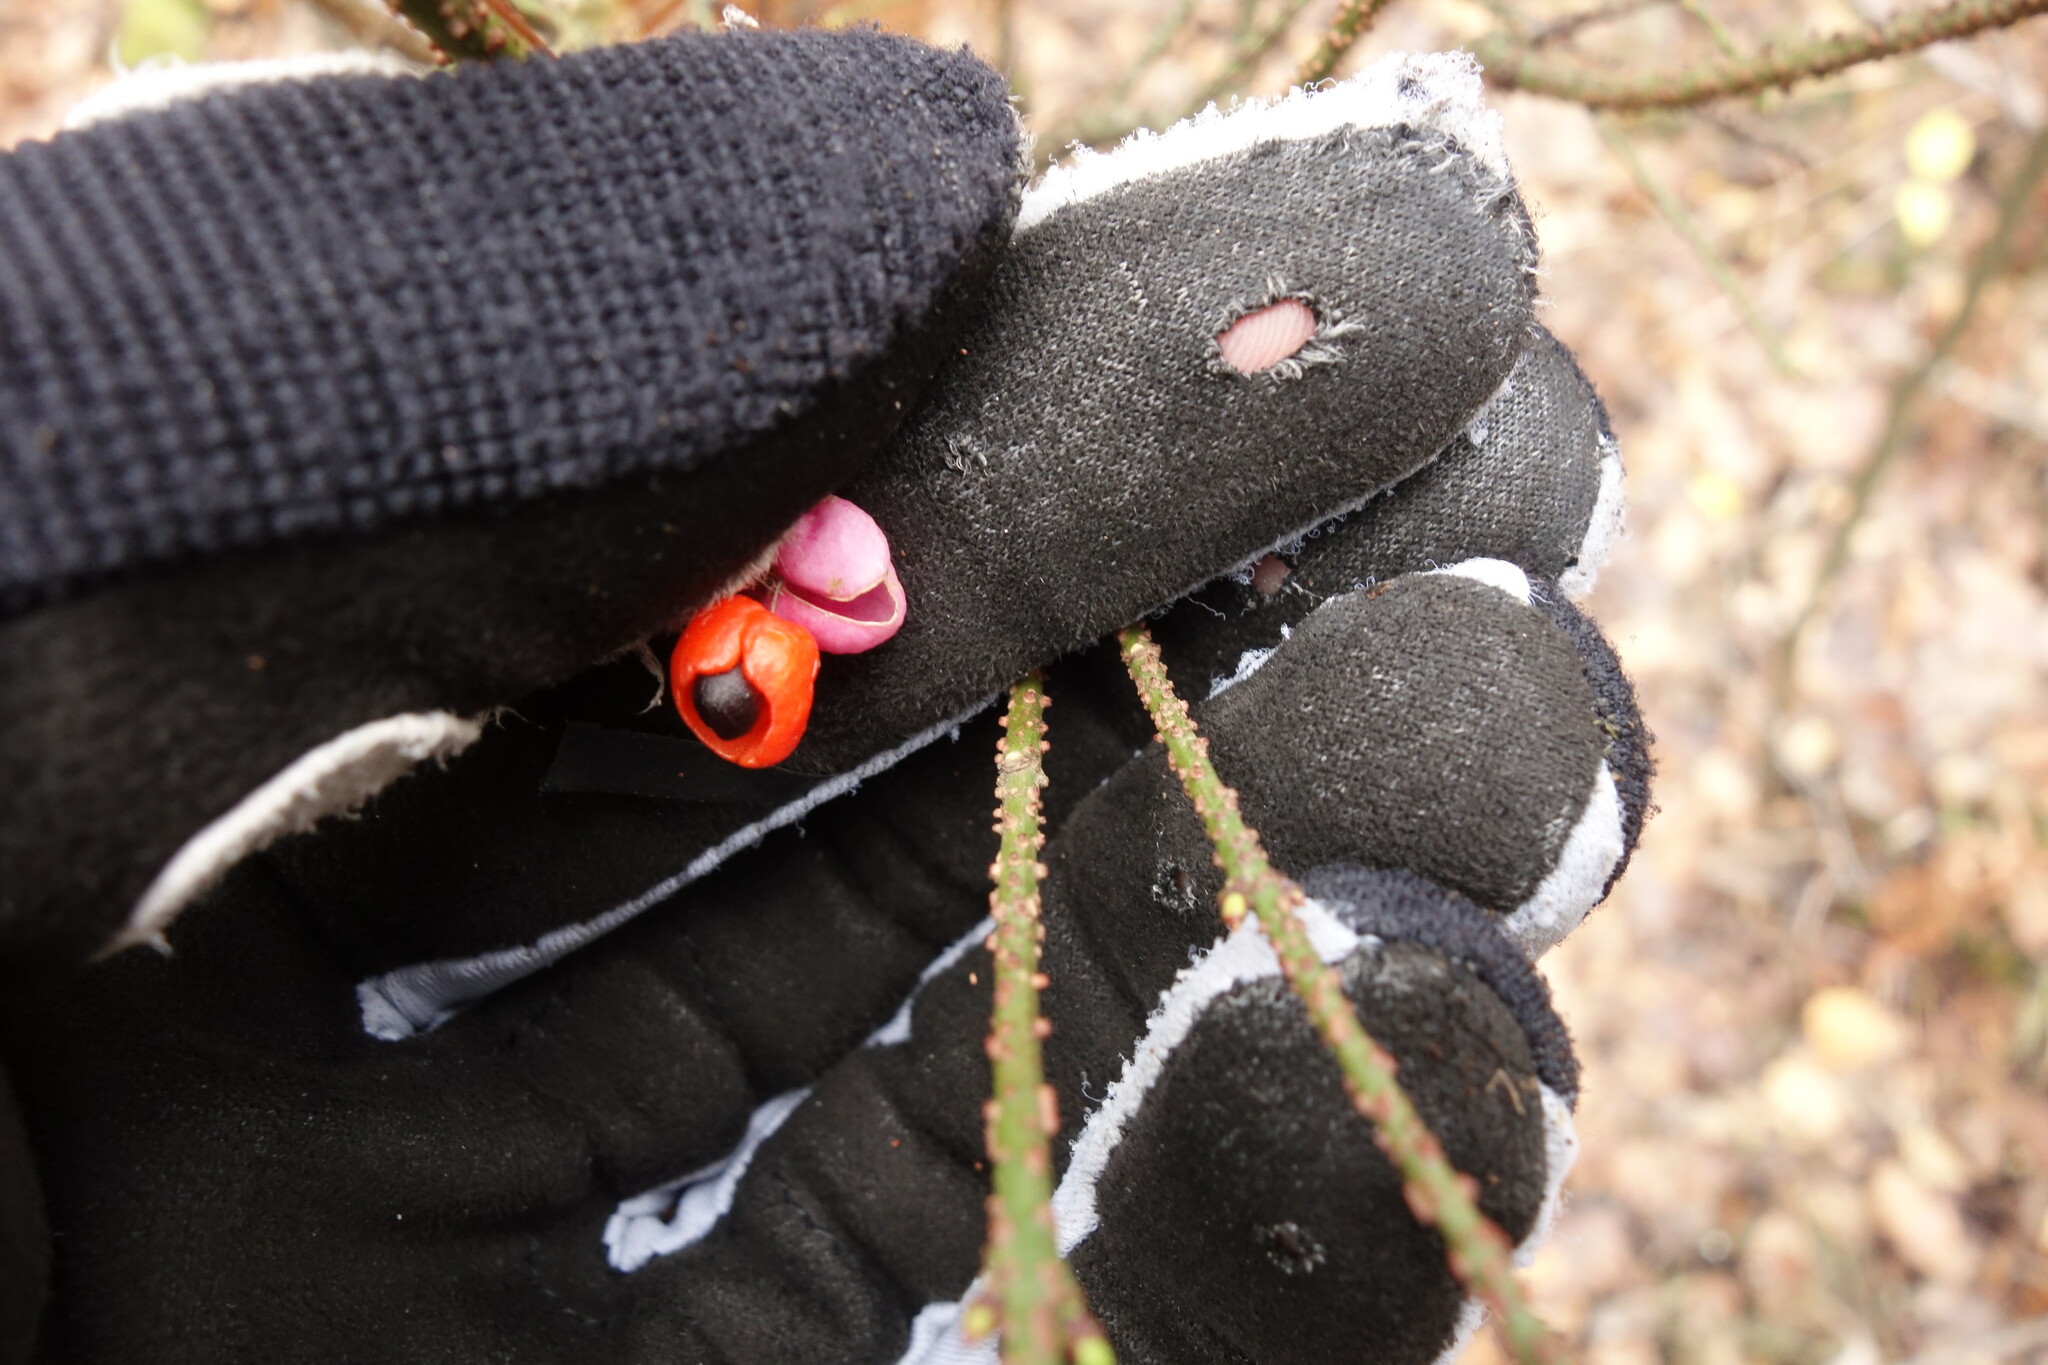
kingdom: Plantae
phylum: Tracheophyta
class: Magnoliopsida
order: Celastrales
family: Celastraceae
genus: Euonymus
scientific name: Euonymus verrucosus
